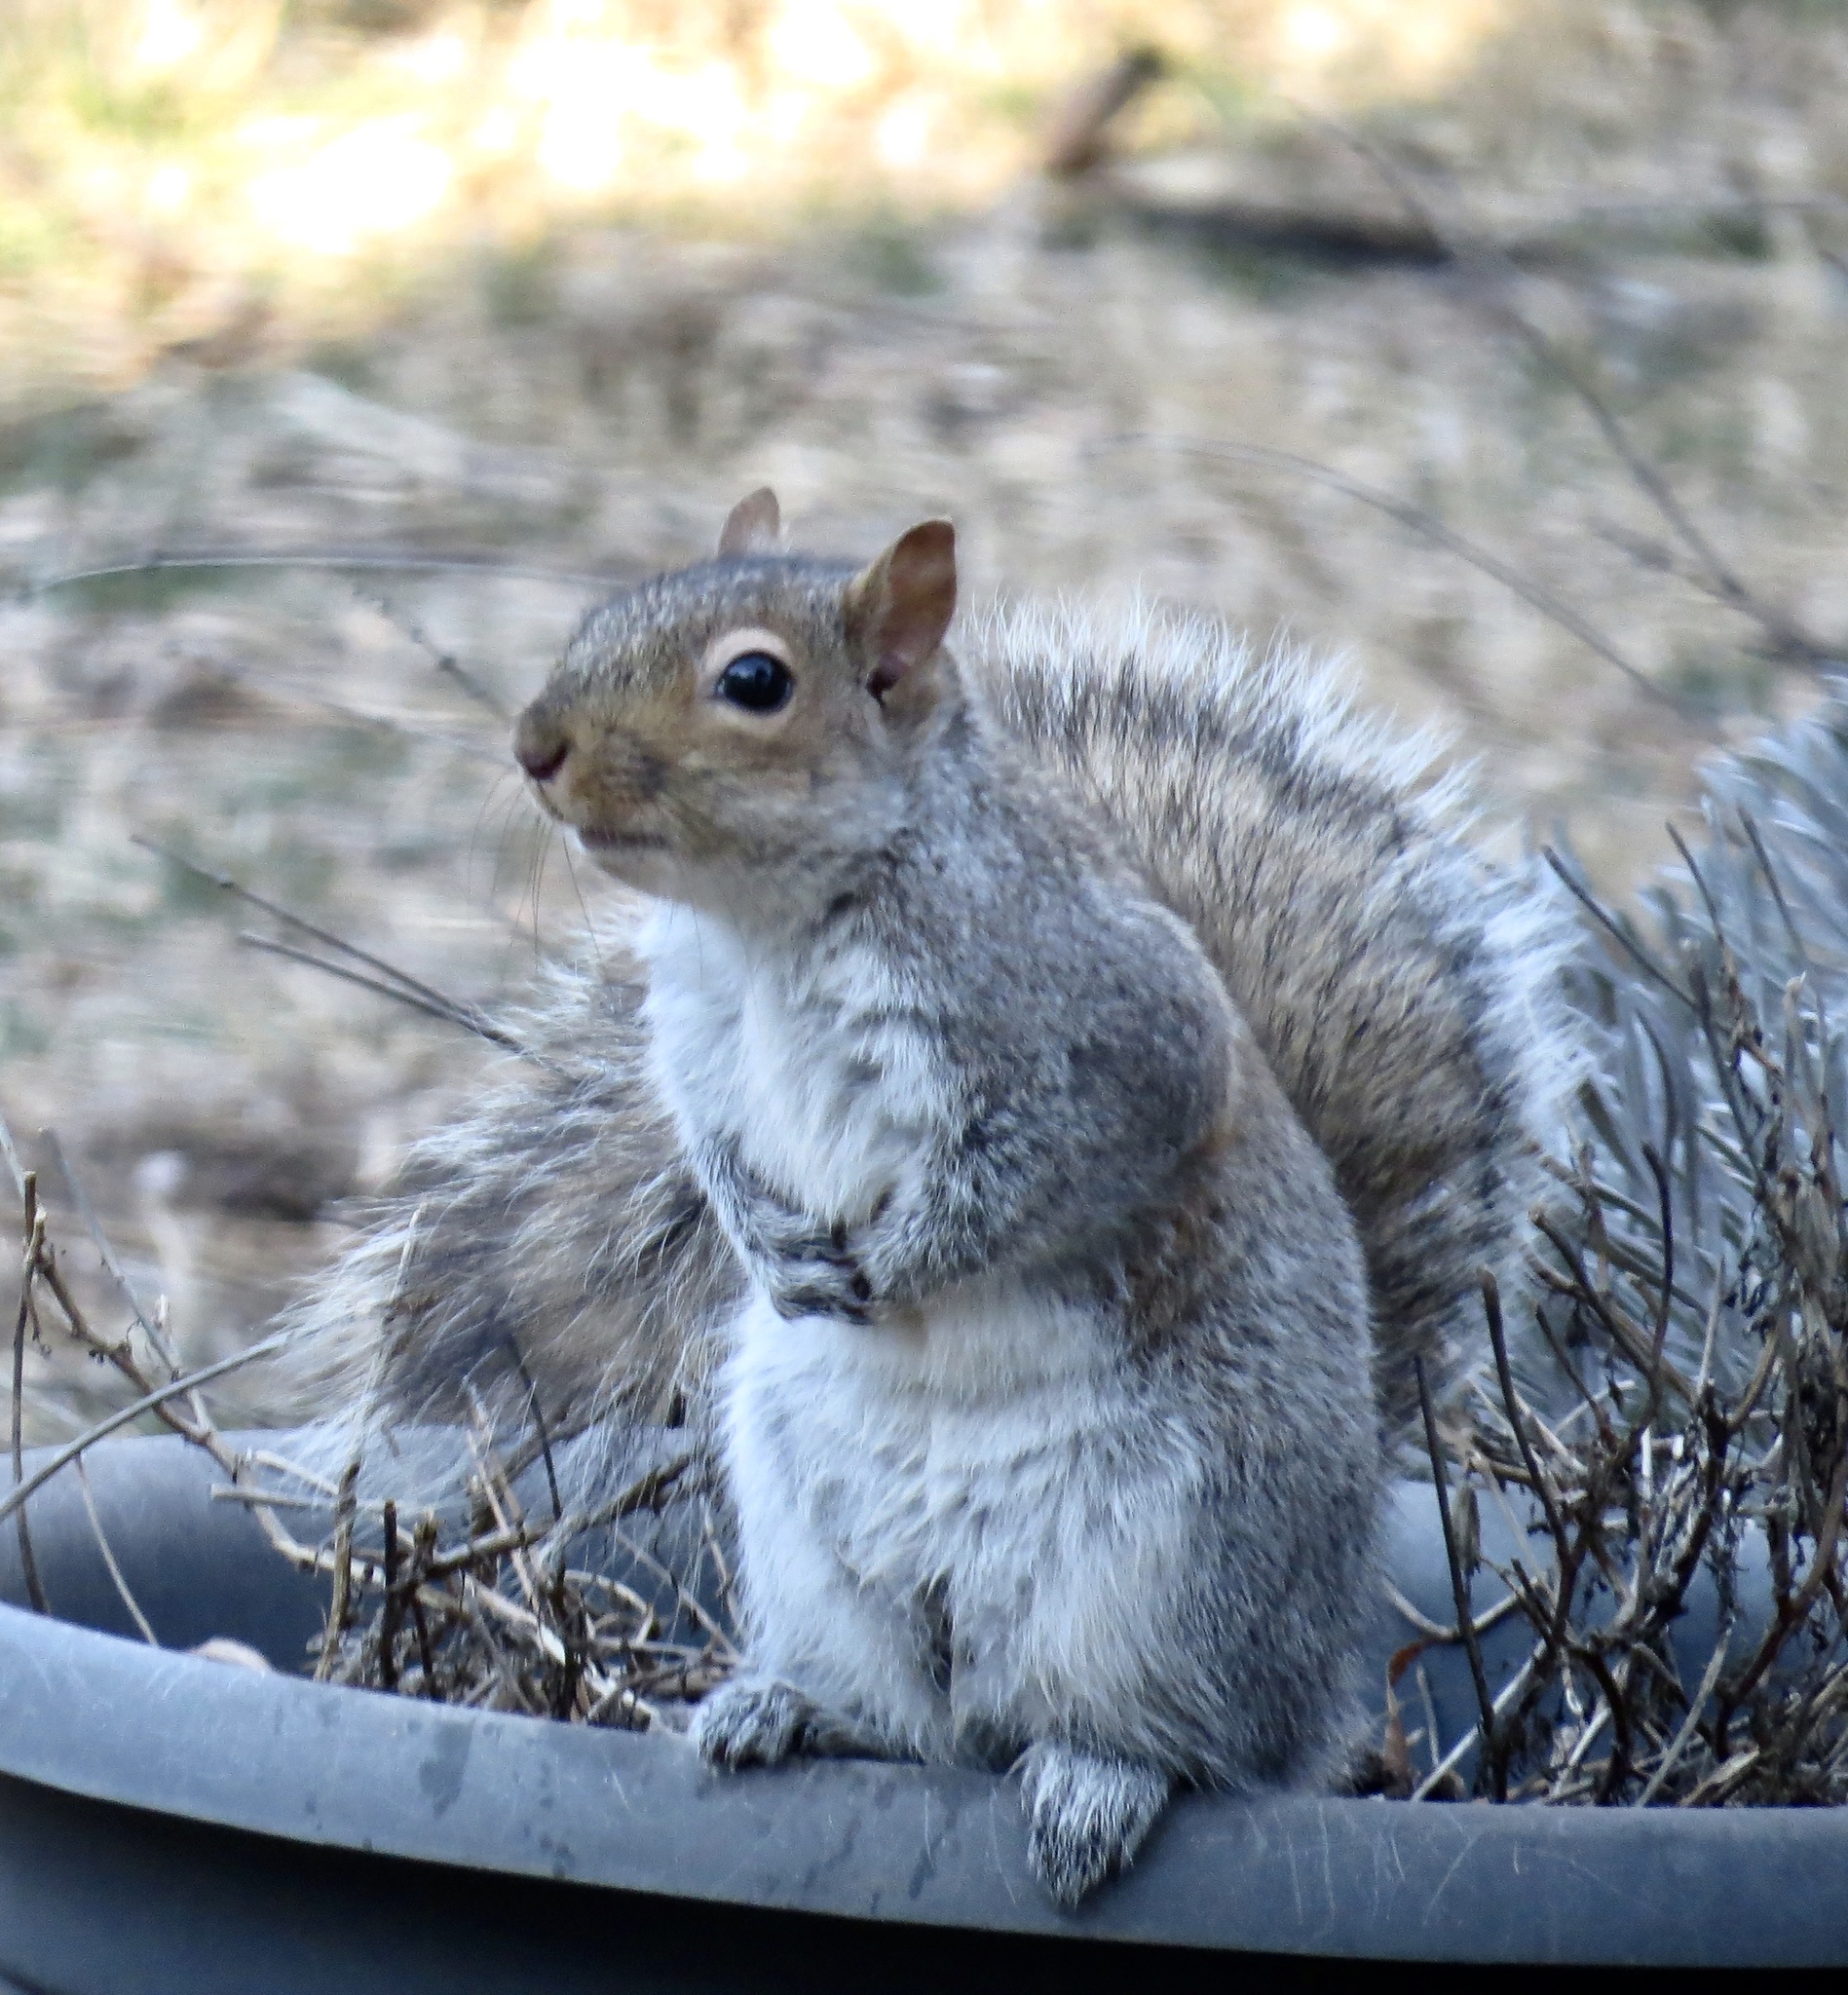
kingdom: Animalia
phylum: Chordata
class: Mammalia
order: Rodentia
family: Sciuridae
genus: Sciurus
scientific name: Sciurus carolinensis
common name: Eastern gray squirrel
